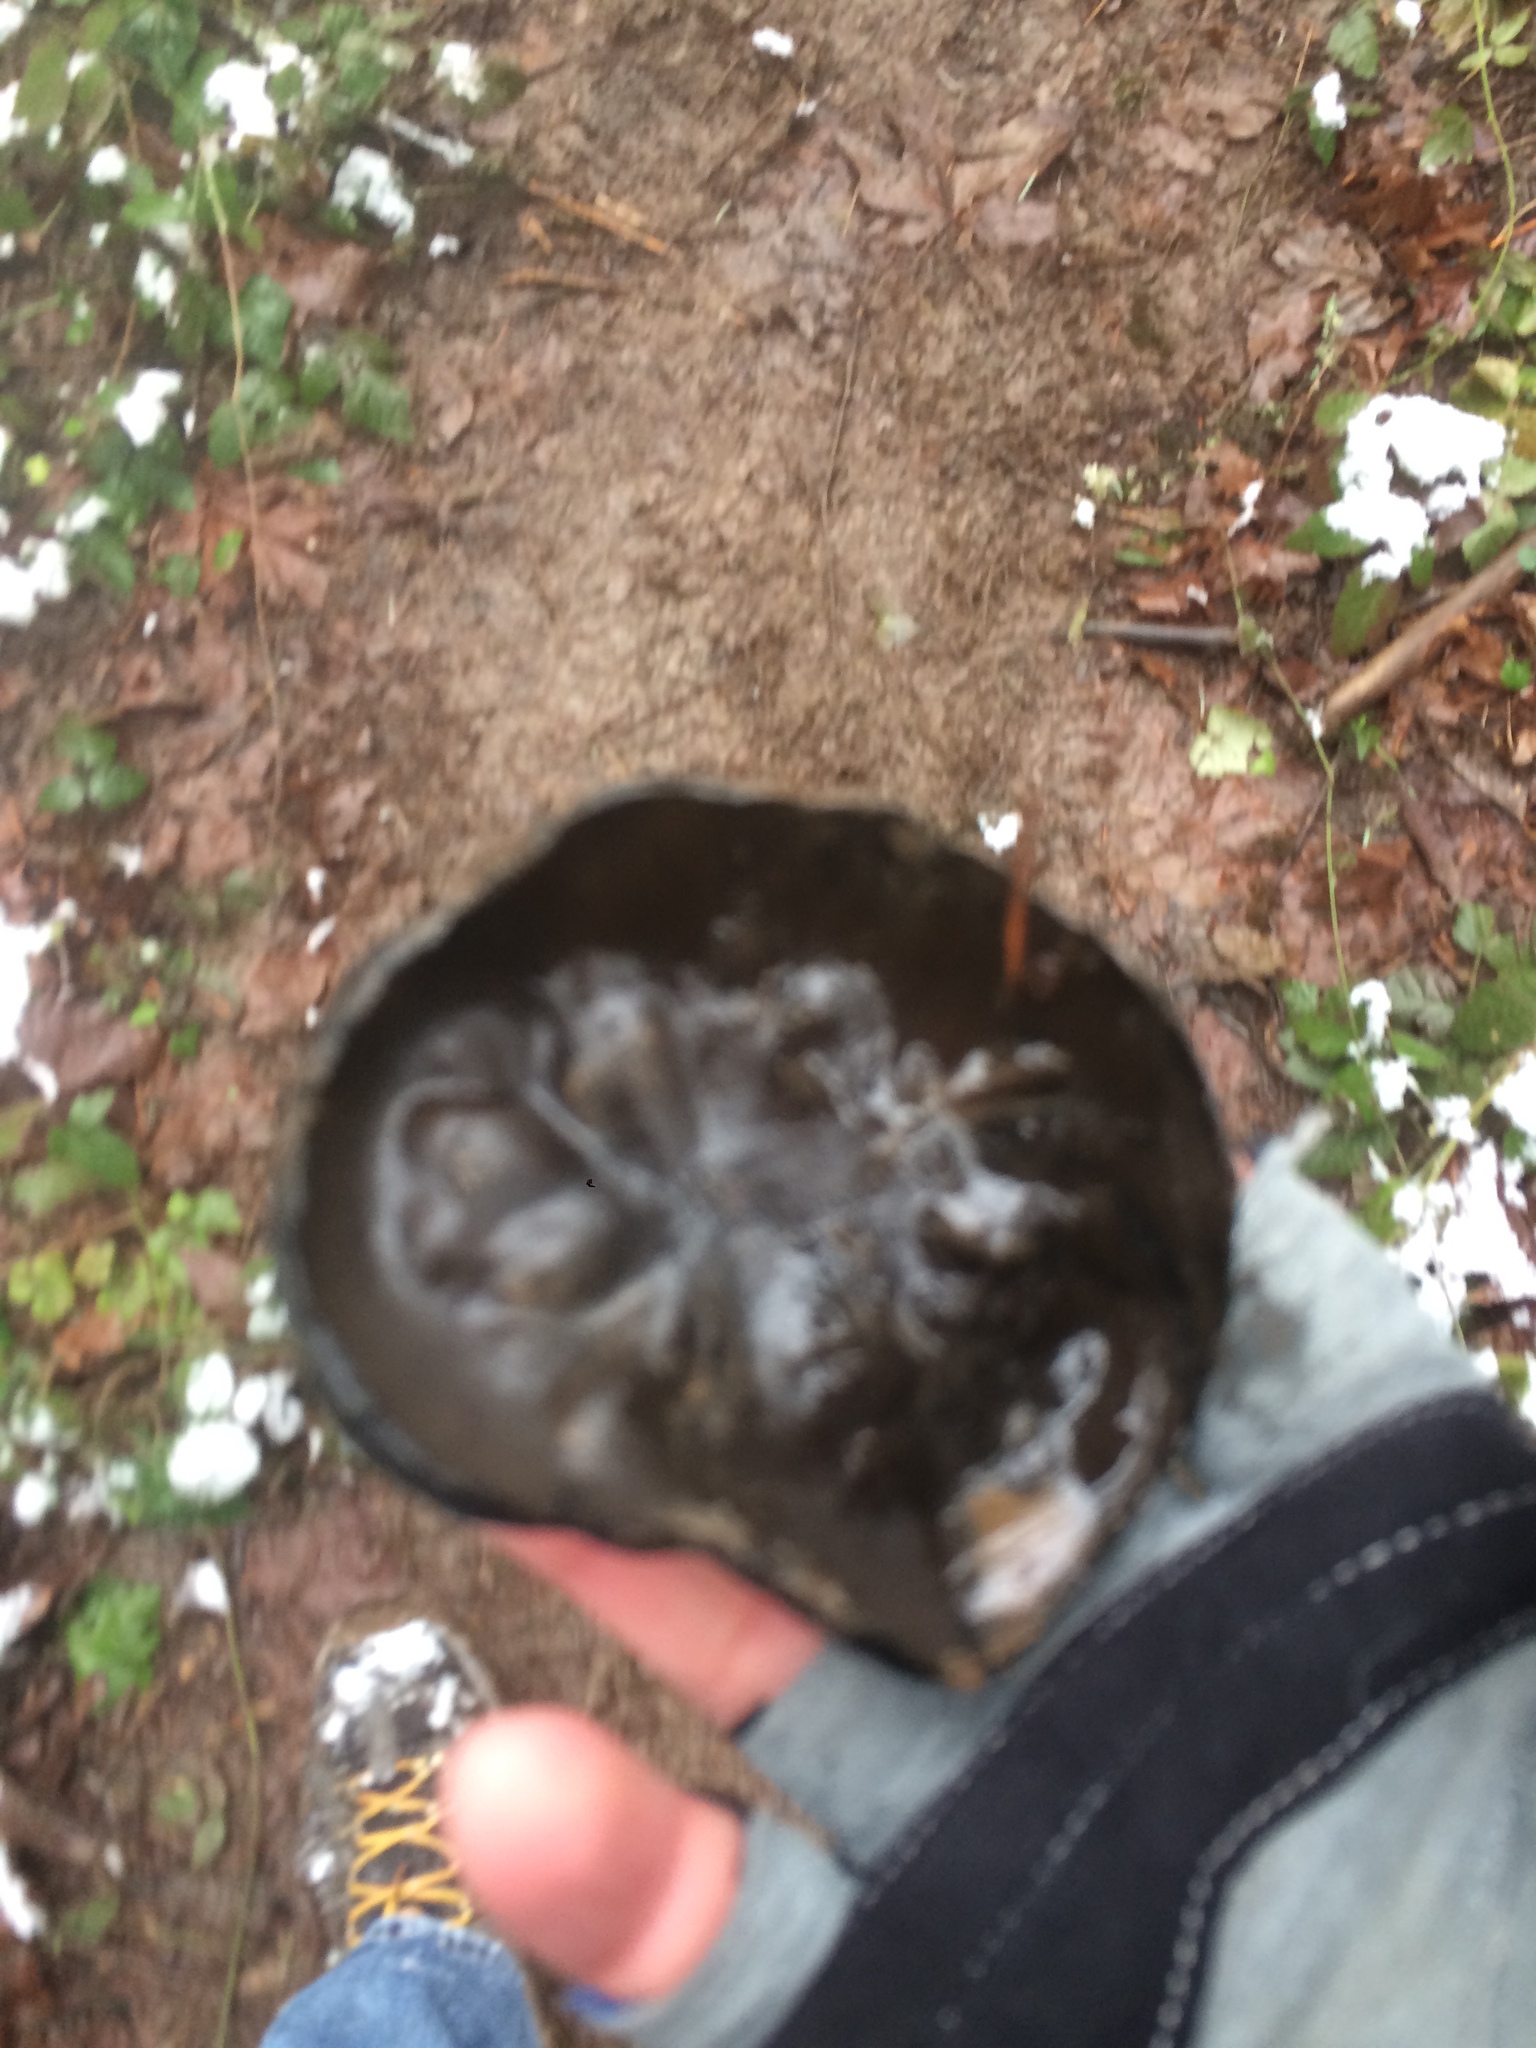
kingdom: Fungi
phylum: Ascomycota
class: Pezizomycetes
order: Pezizales
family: Sarcosomataceae
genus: Urnula
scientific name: Urnula padeniana
